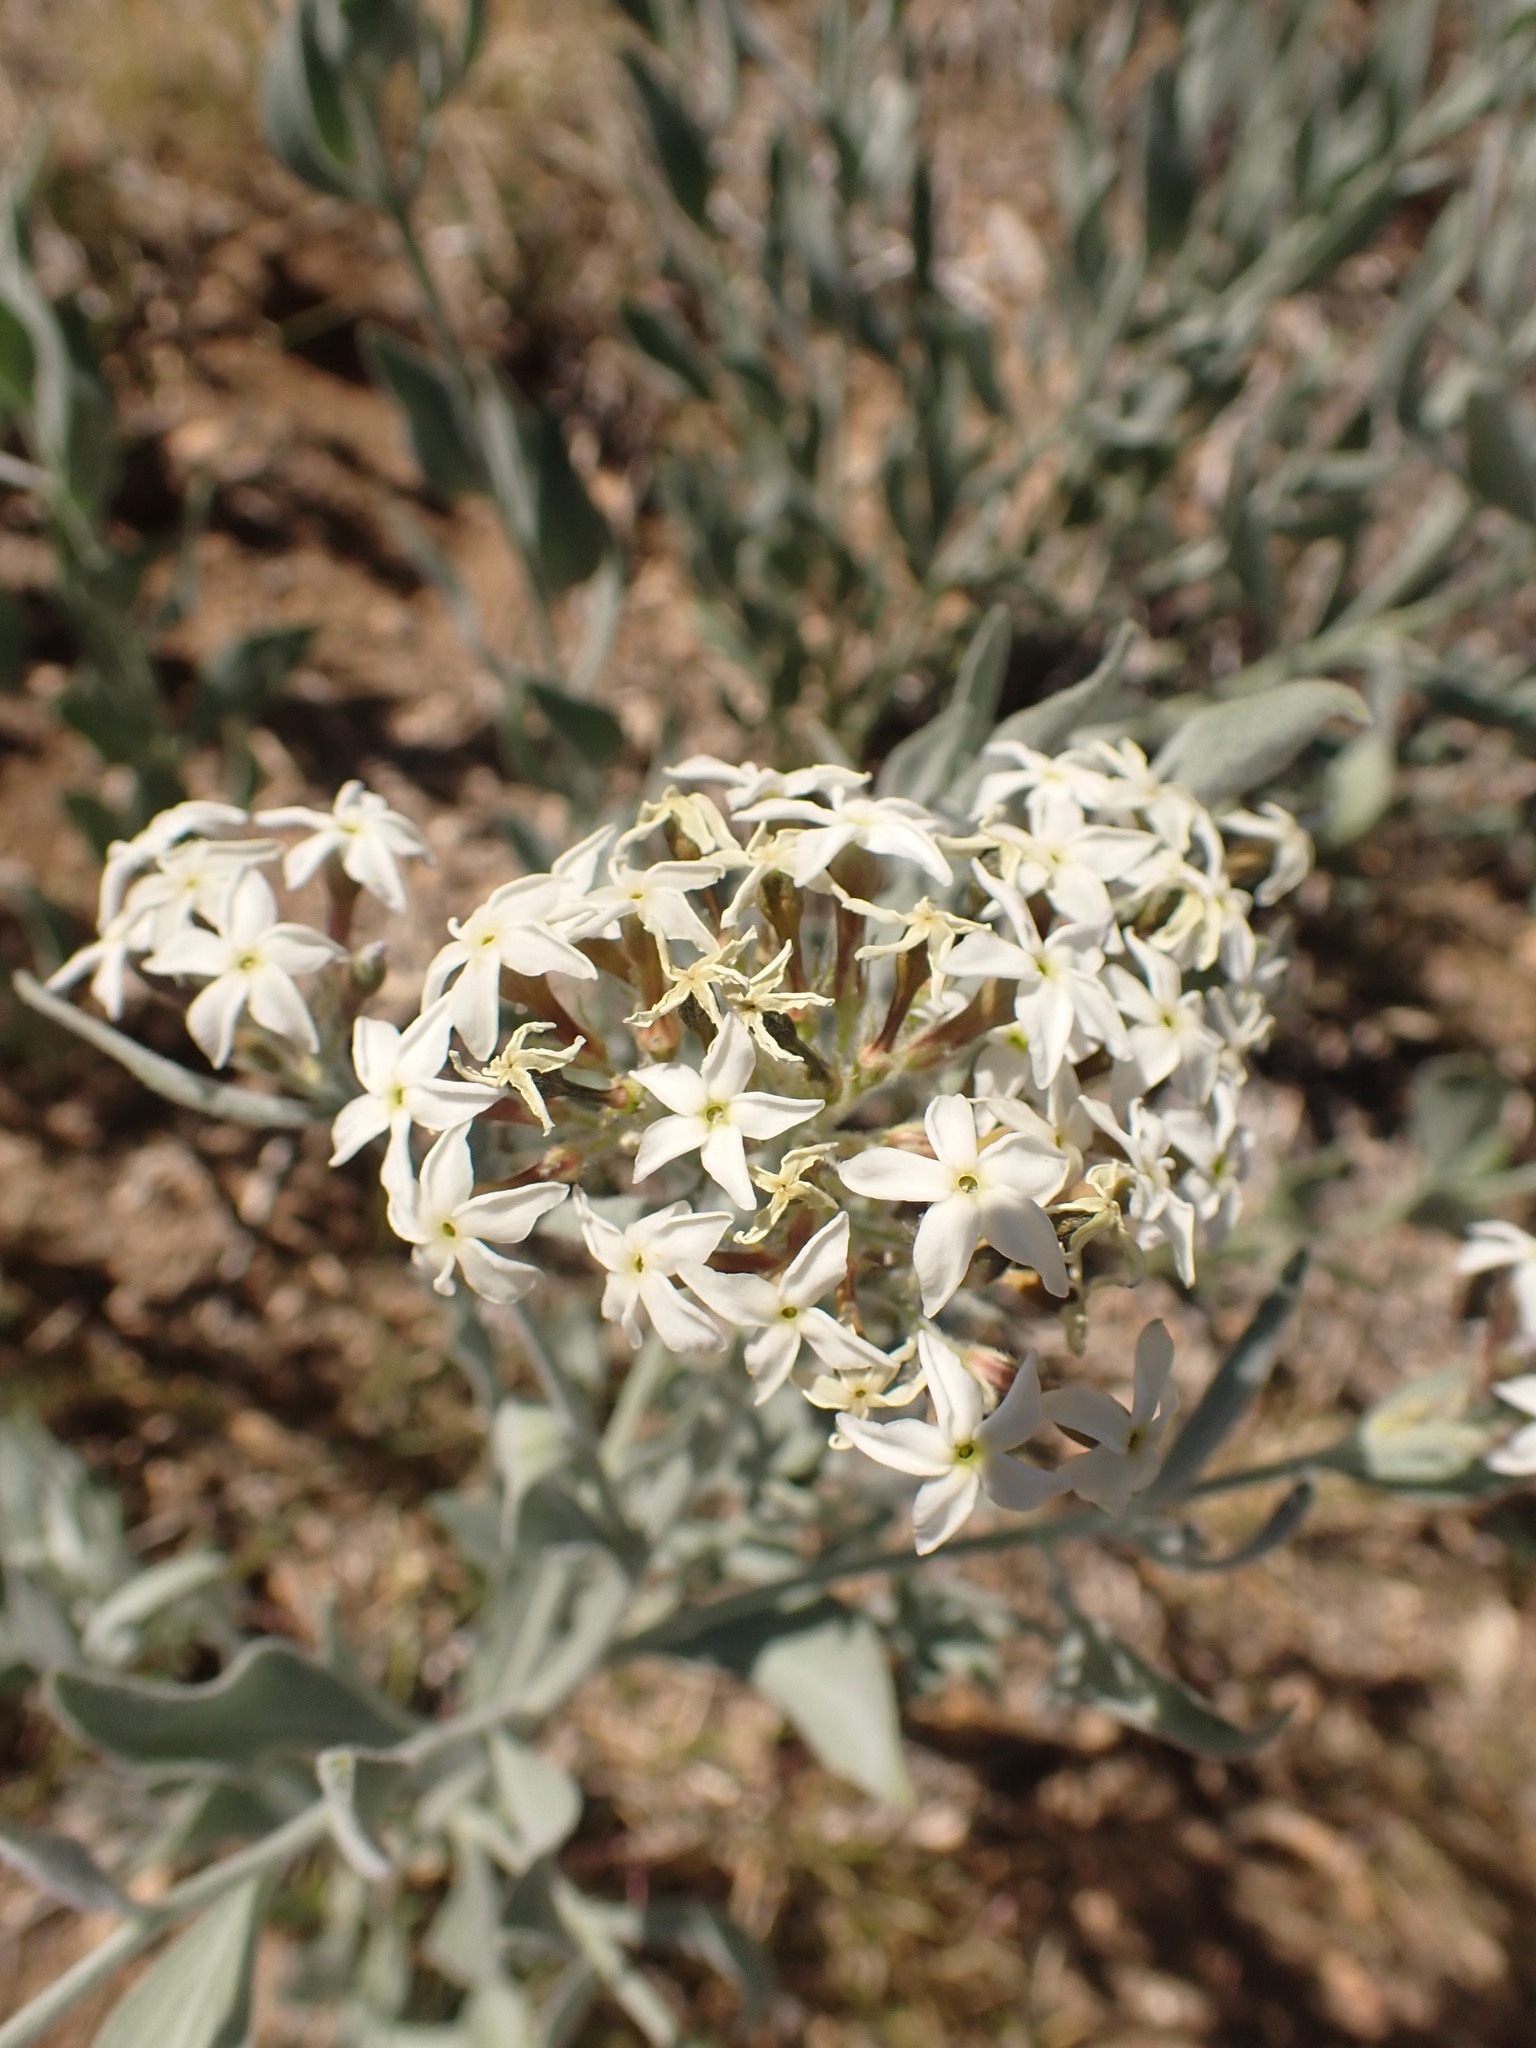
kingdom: Plantae
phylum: Tracheophyta
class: Magnoliopsida
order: Gentianales
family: Apocynaceae
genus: Amsonia
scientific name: Amsonia tomentosa
